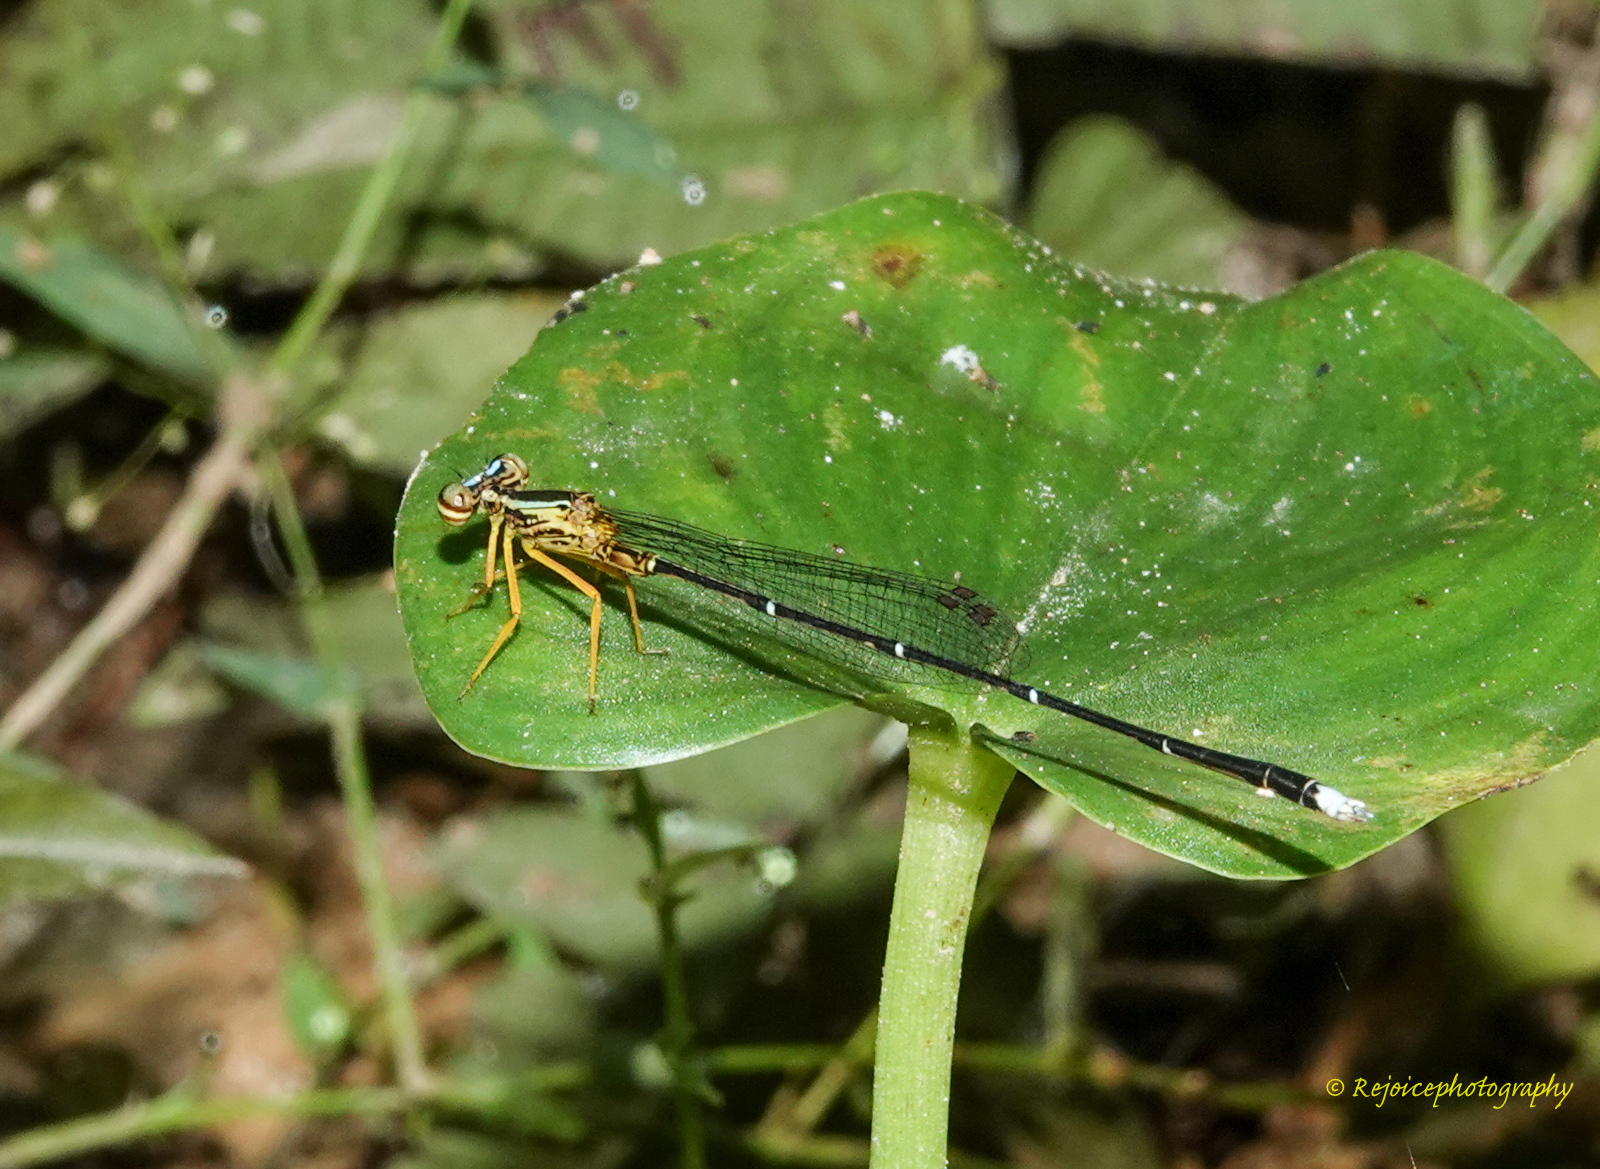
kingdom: Animalia
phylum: Arthropoda
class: Insecta
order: Odonata
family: Platycnemididae
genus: Copera
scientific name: Copera vittata
